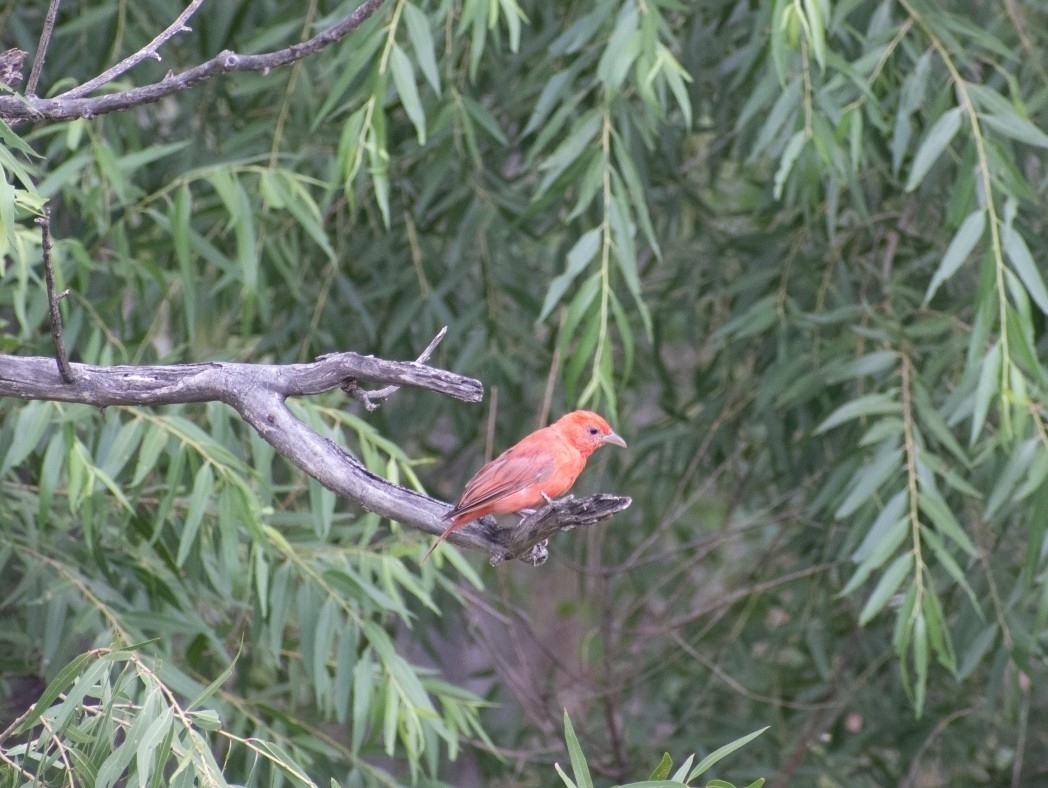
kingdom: Animalia
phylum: Chordata
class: Aves
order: Passeriformes
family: Cardinalidae
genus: Piranga
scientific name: Piranga rubra
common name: Summer tanager
